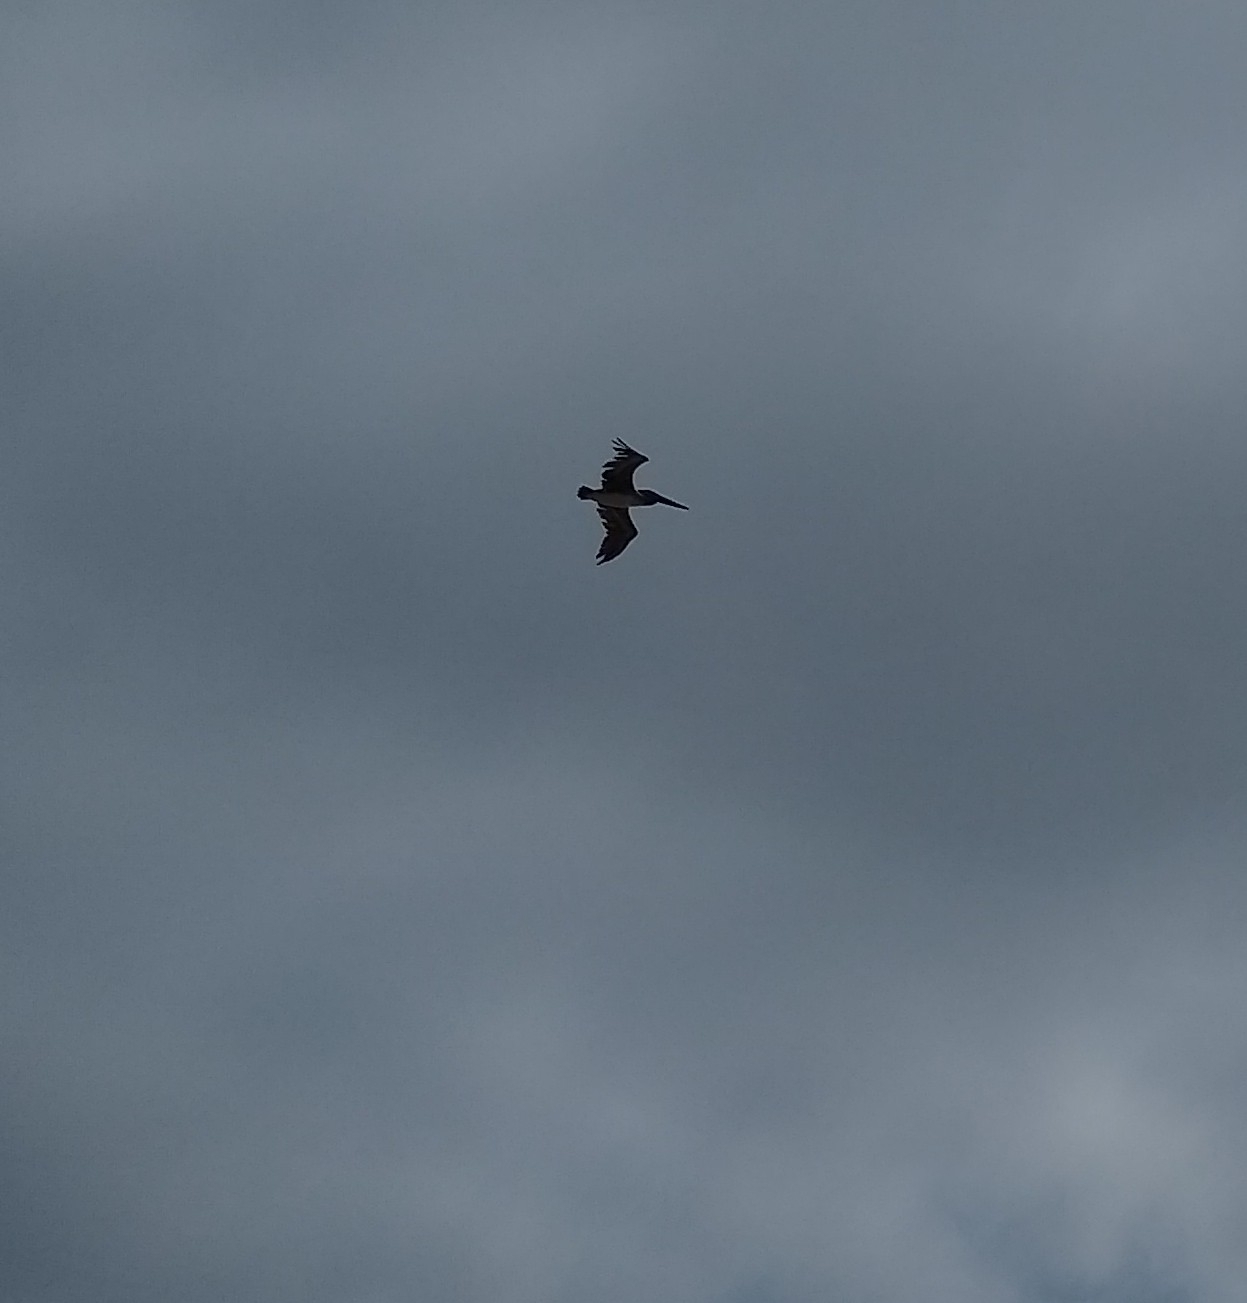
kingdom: Animalia
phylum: Chordata
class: Aves
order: Pelecaniformes
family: Pelecanidae
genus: Pelecanus
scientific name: Pelecanus occidentalis
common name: Brown pelican
